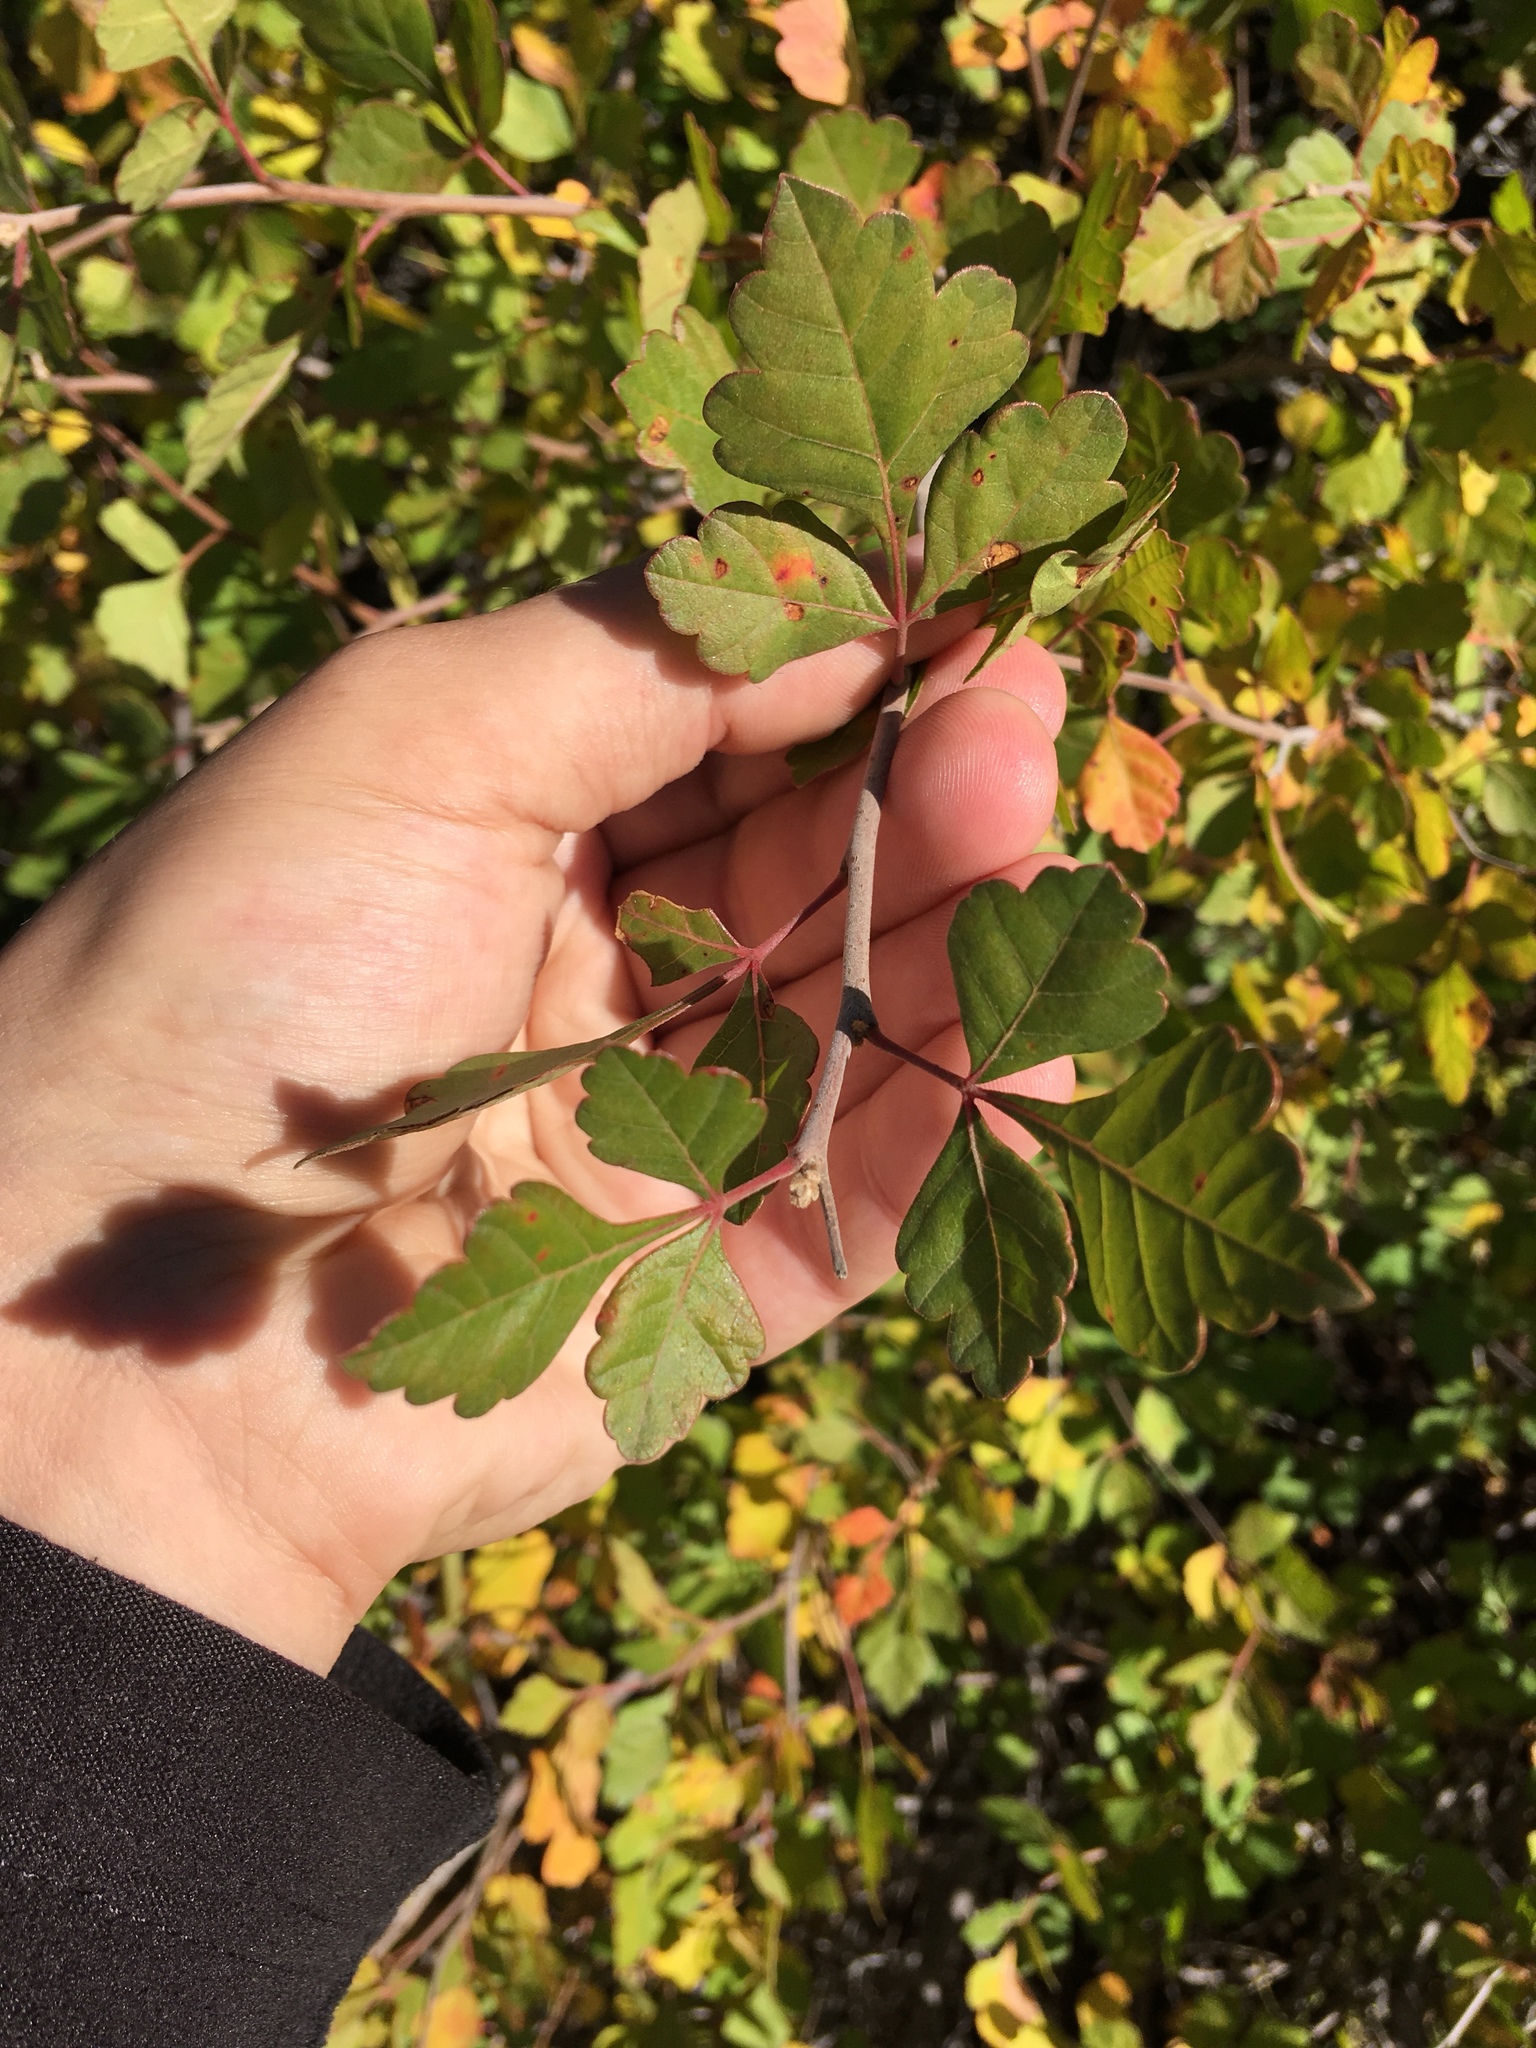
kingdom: Plantae
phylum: Tracheophyta
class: Magnoliopsida
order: Sapindales
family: Anacardiaceae
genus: Rhus
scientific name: Rhus aromatica
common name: Aromatic sumac
